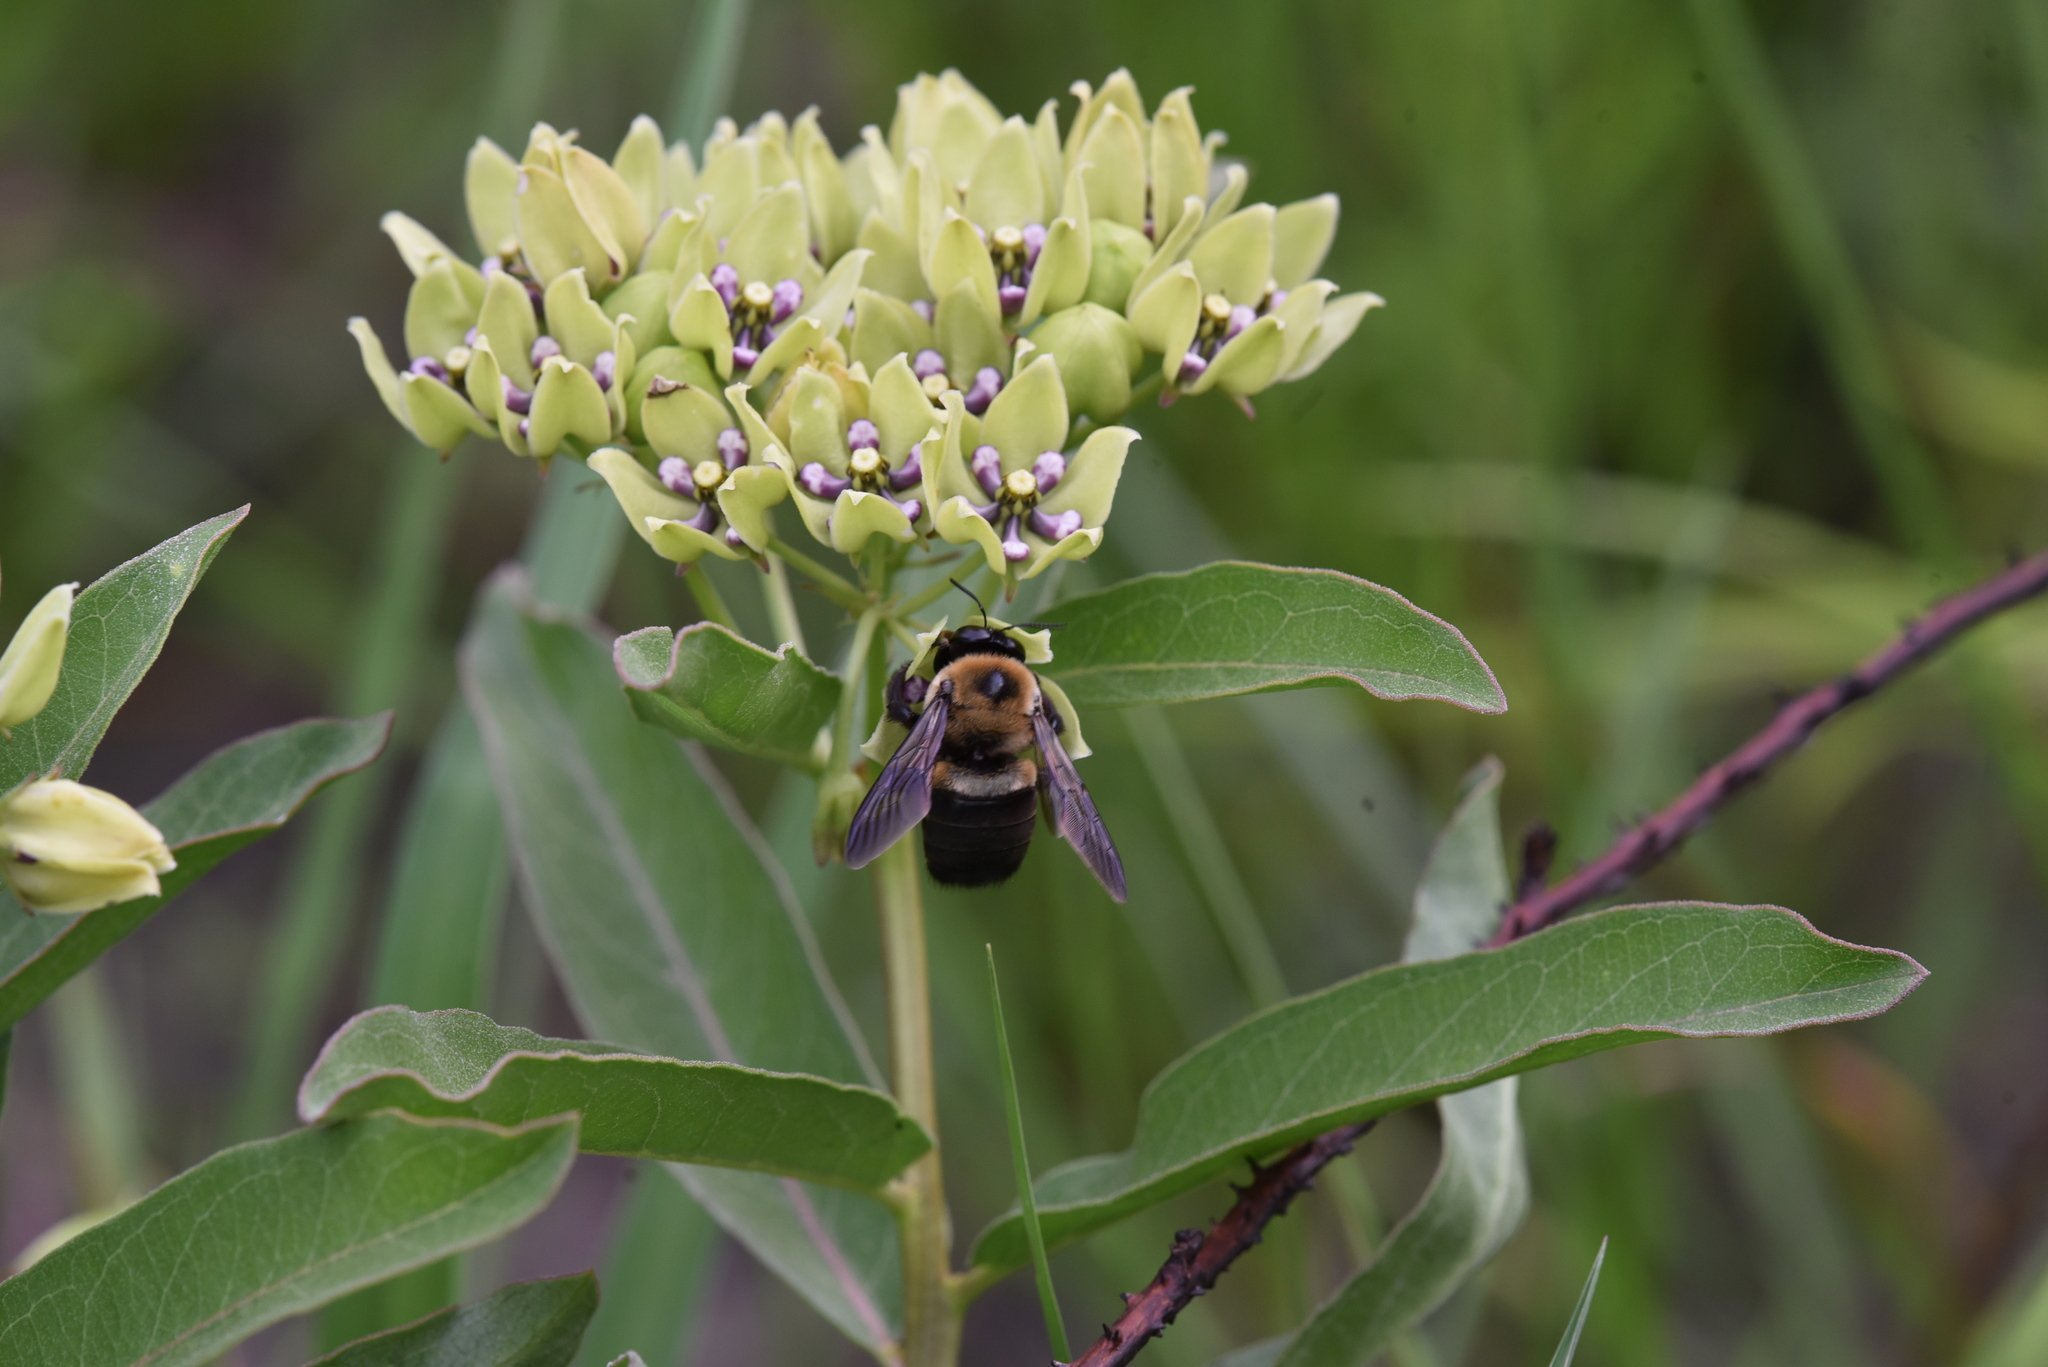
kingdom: Animalia
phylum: Arthropoda
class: Insecta
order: Hymenoptera
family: Apidae
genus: Xylocopa
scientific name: Xylocopa virginica
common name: Carpenter bee
